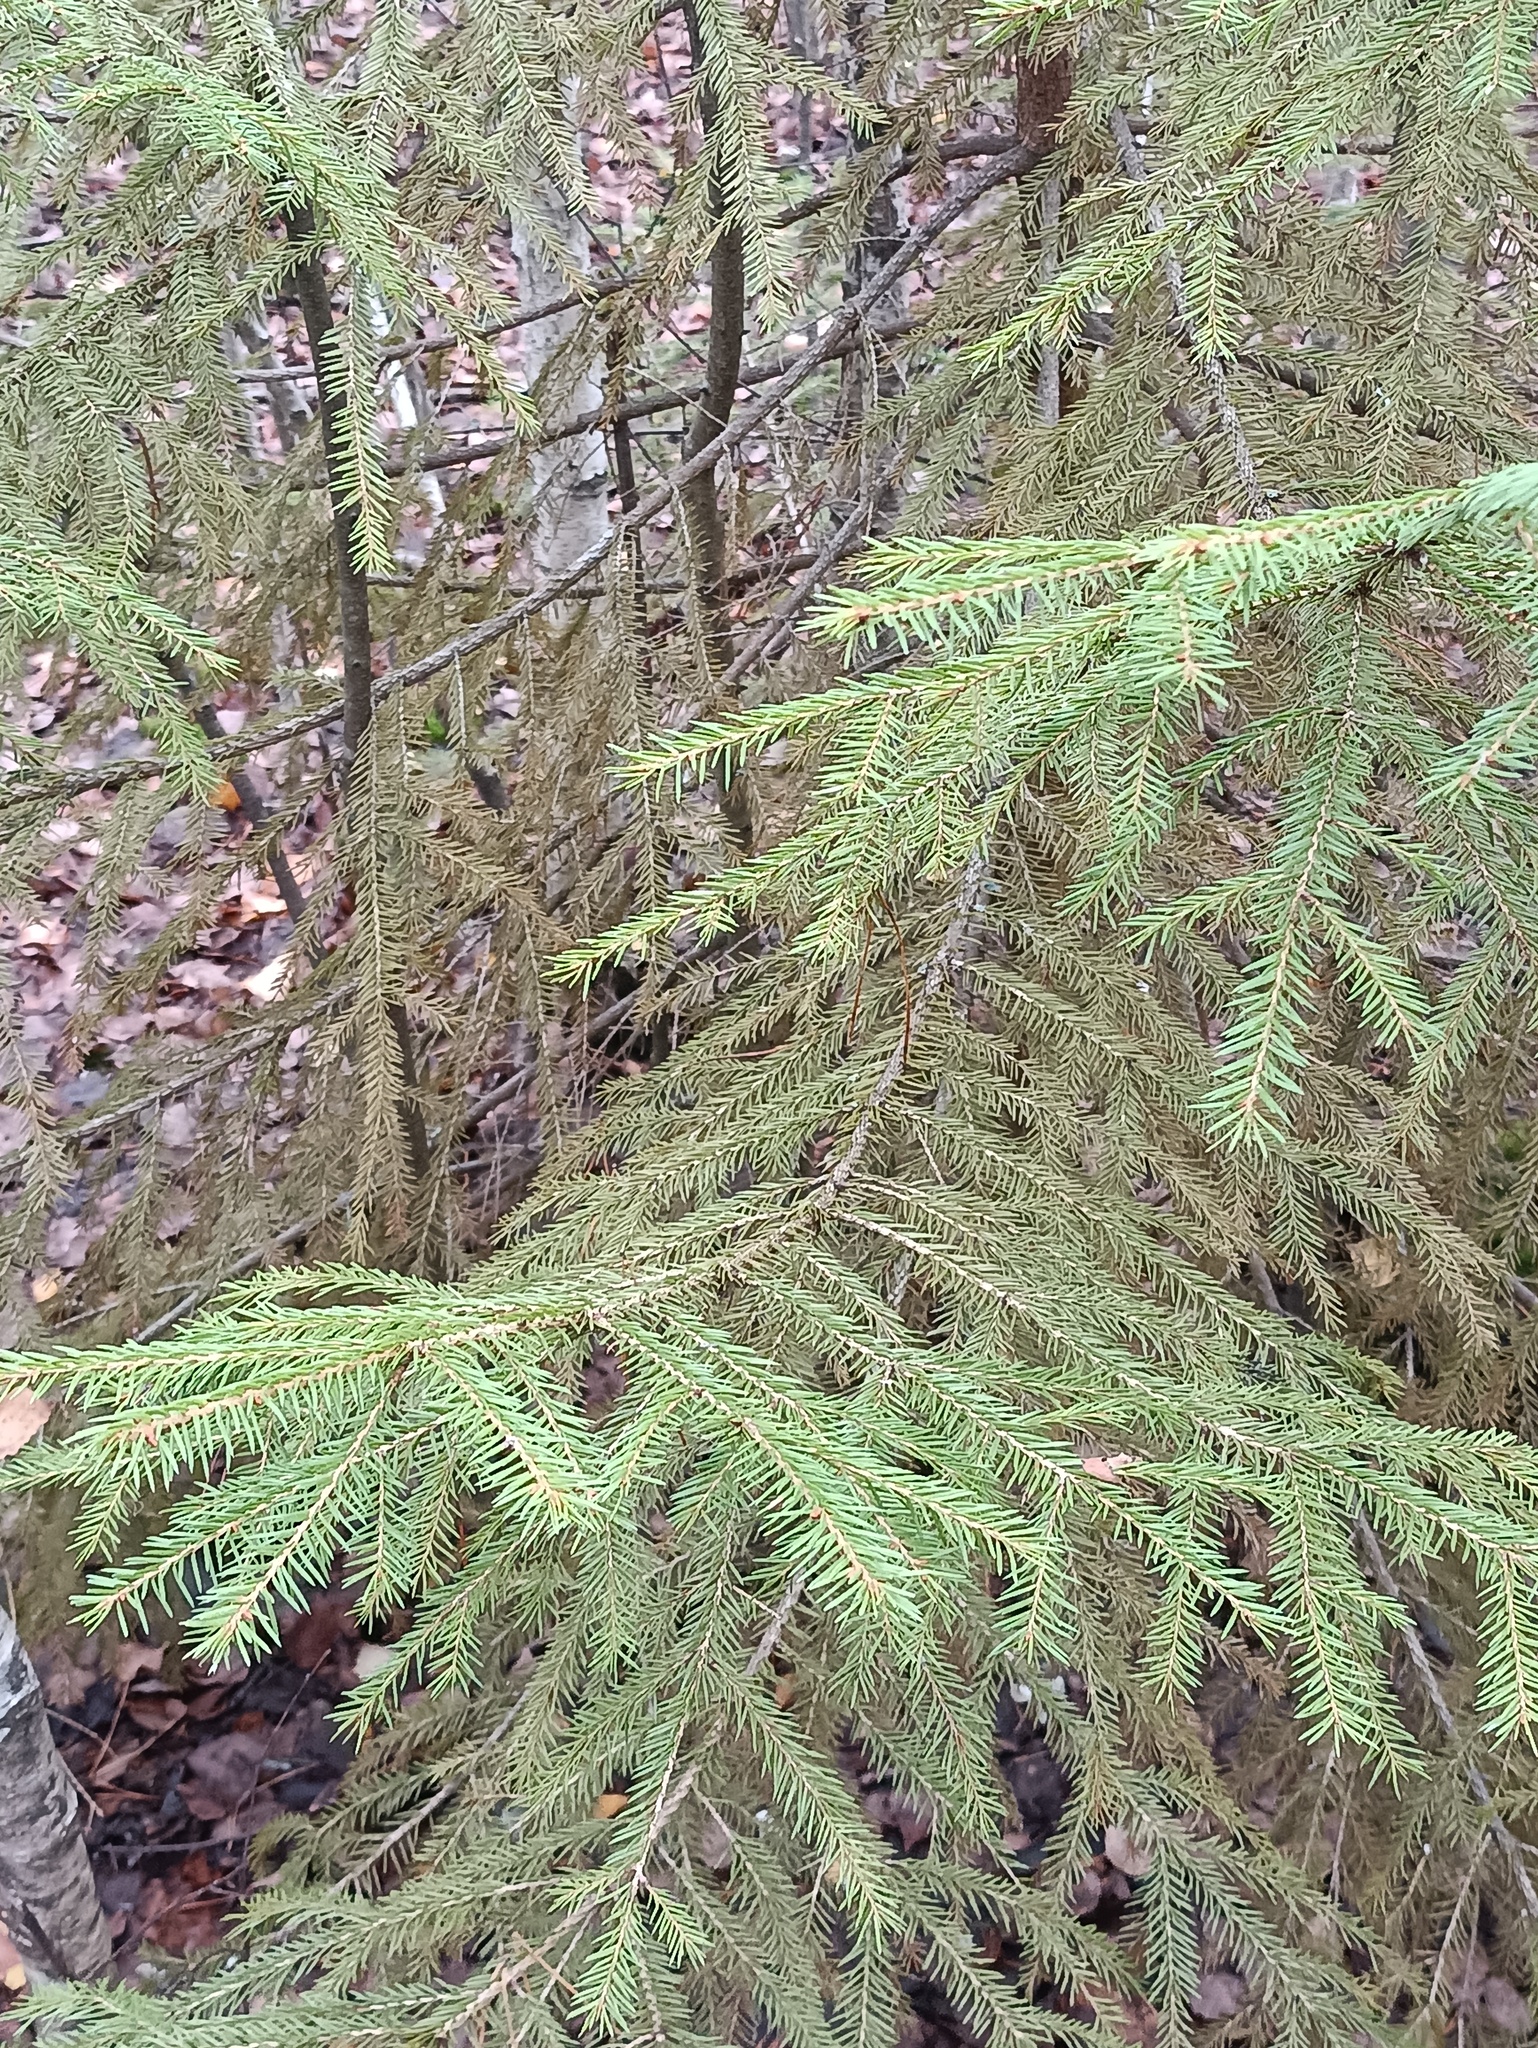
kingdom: Plantae
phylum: Tracheophyta
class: Pinopsida
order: Pinales
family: Pinaceae
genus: Picea
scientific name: Picea abies
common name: Norway spruce
